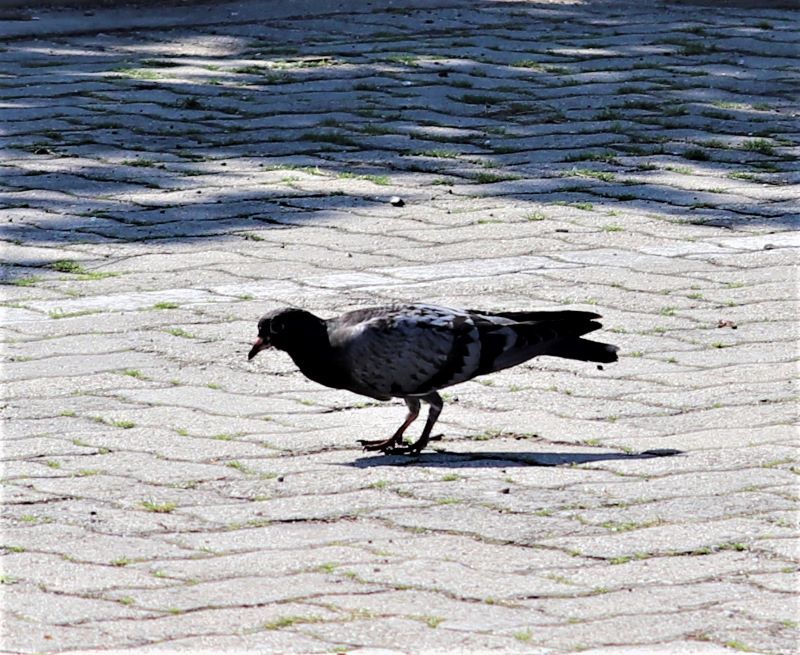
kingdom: Animalia
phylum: Chordata
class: Aves
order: Columbiformes
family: Columbidae
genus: Columba
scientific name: Columba livia
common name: Rock pigeon
